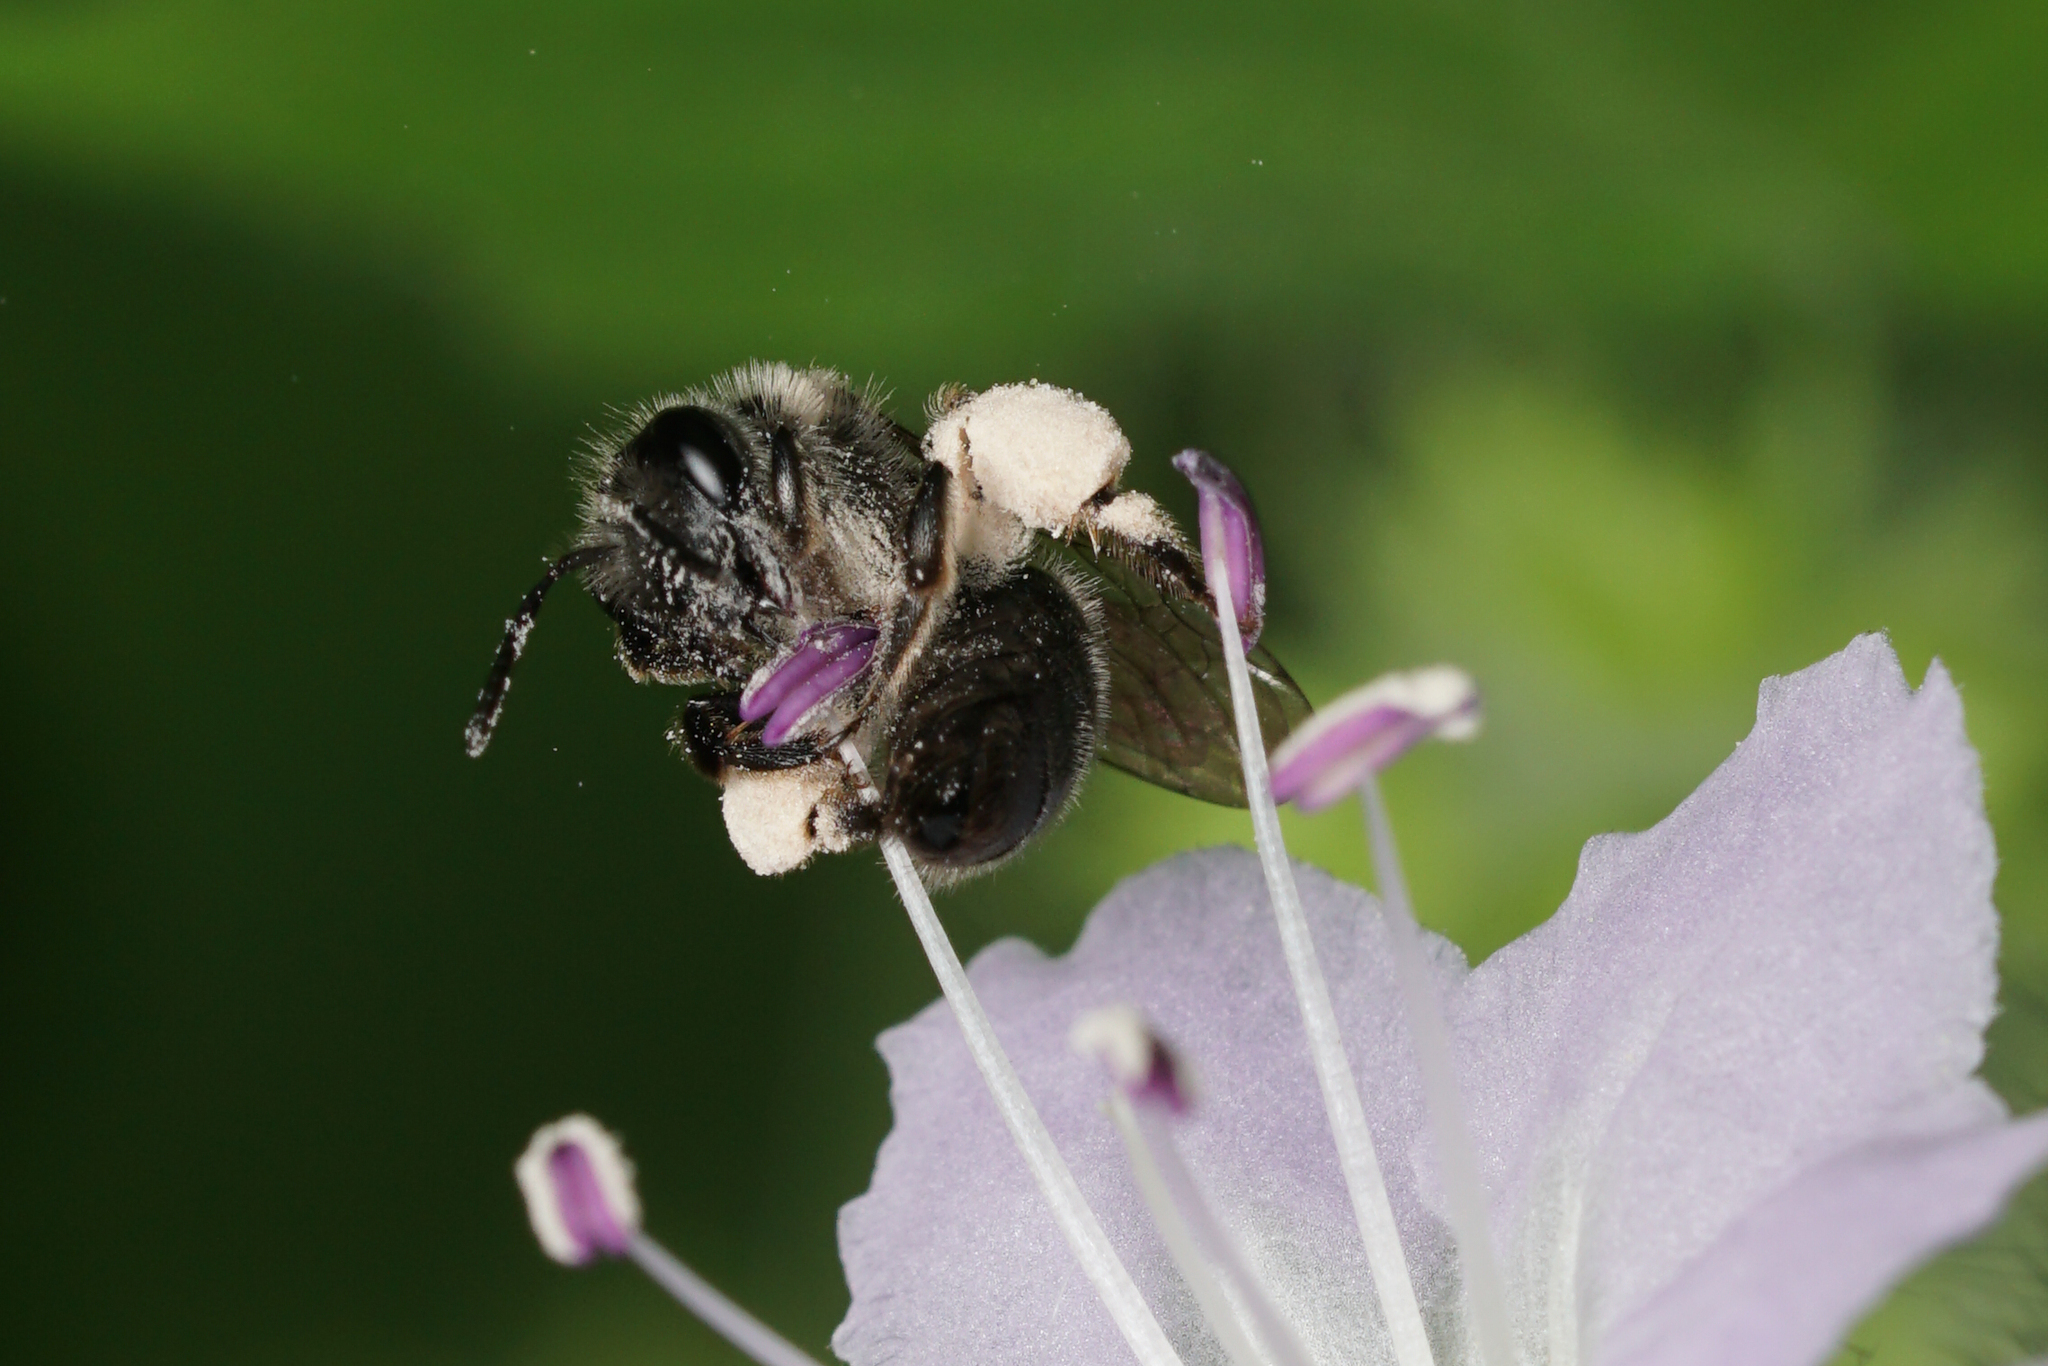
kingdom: Animalia
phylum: Arthropoda
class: Insecta
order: Hymenoptera
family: Andrenidae
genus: Andrena
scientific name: Andrena geranii
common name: Waterleaf mining bee
